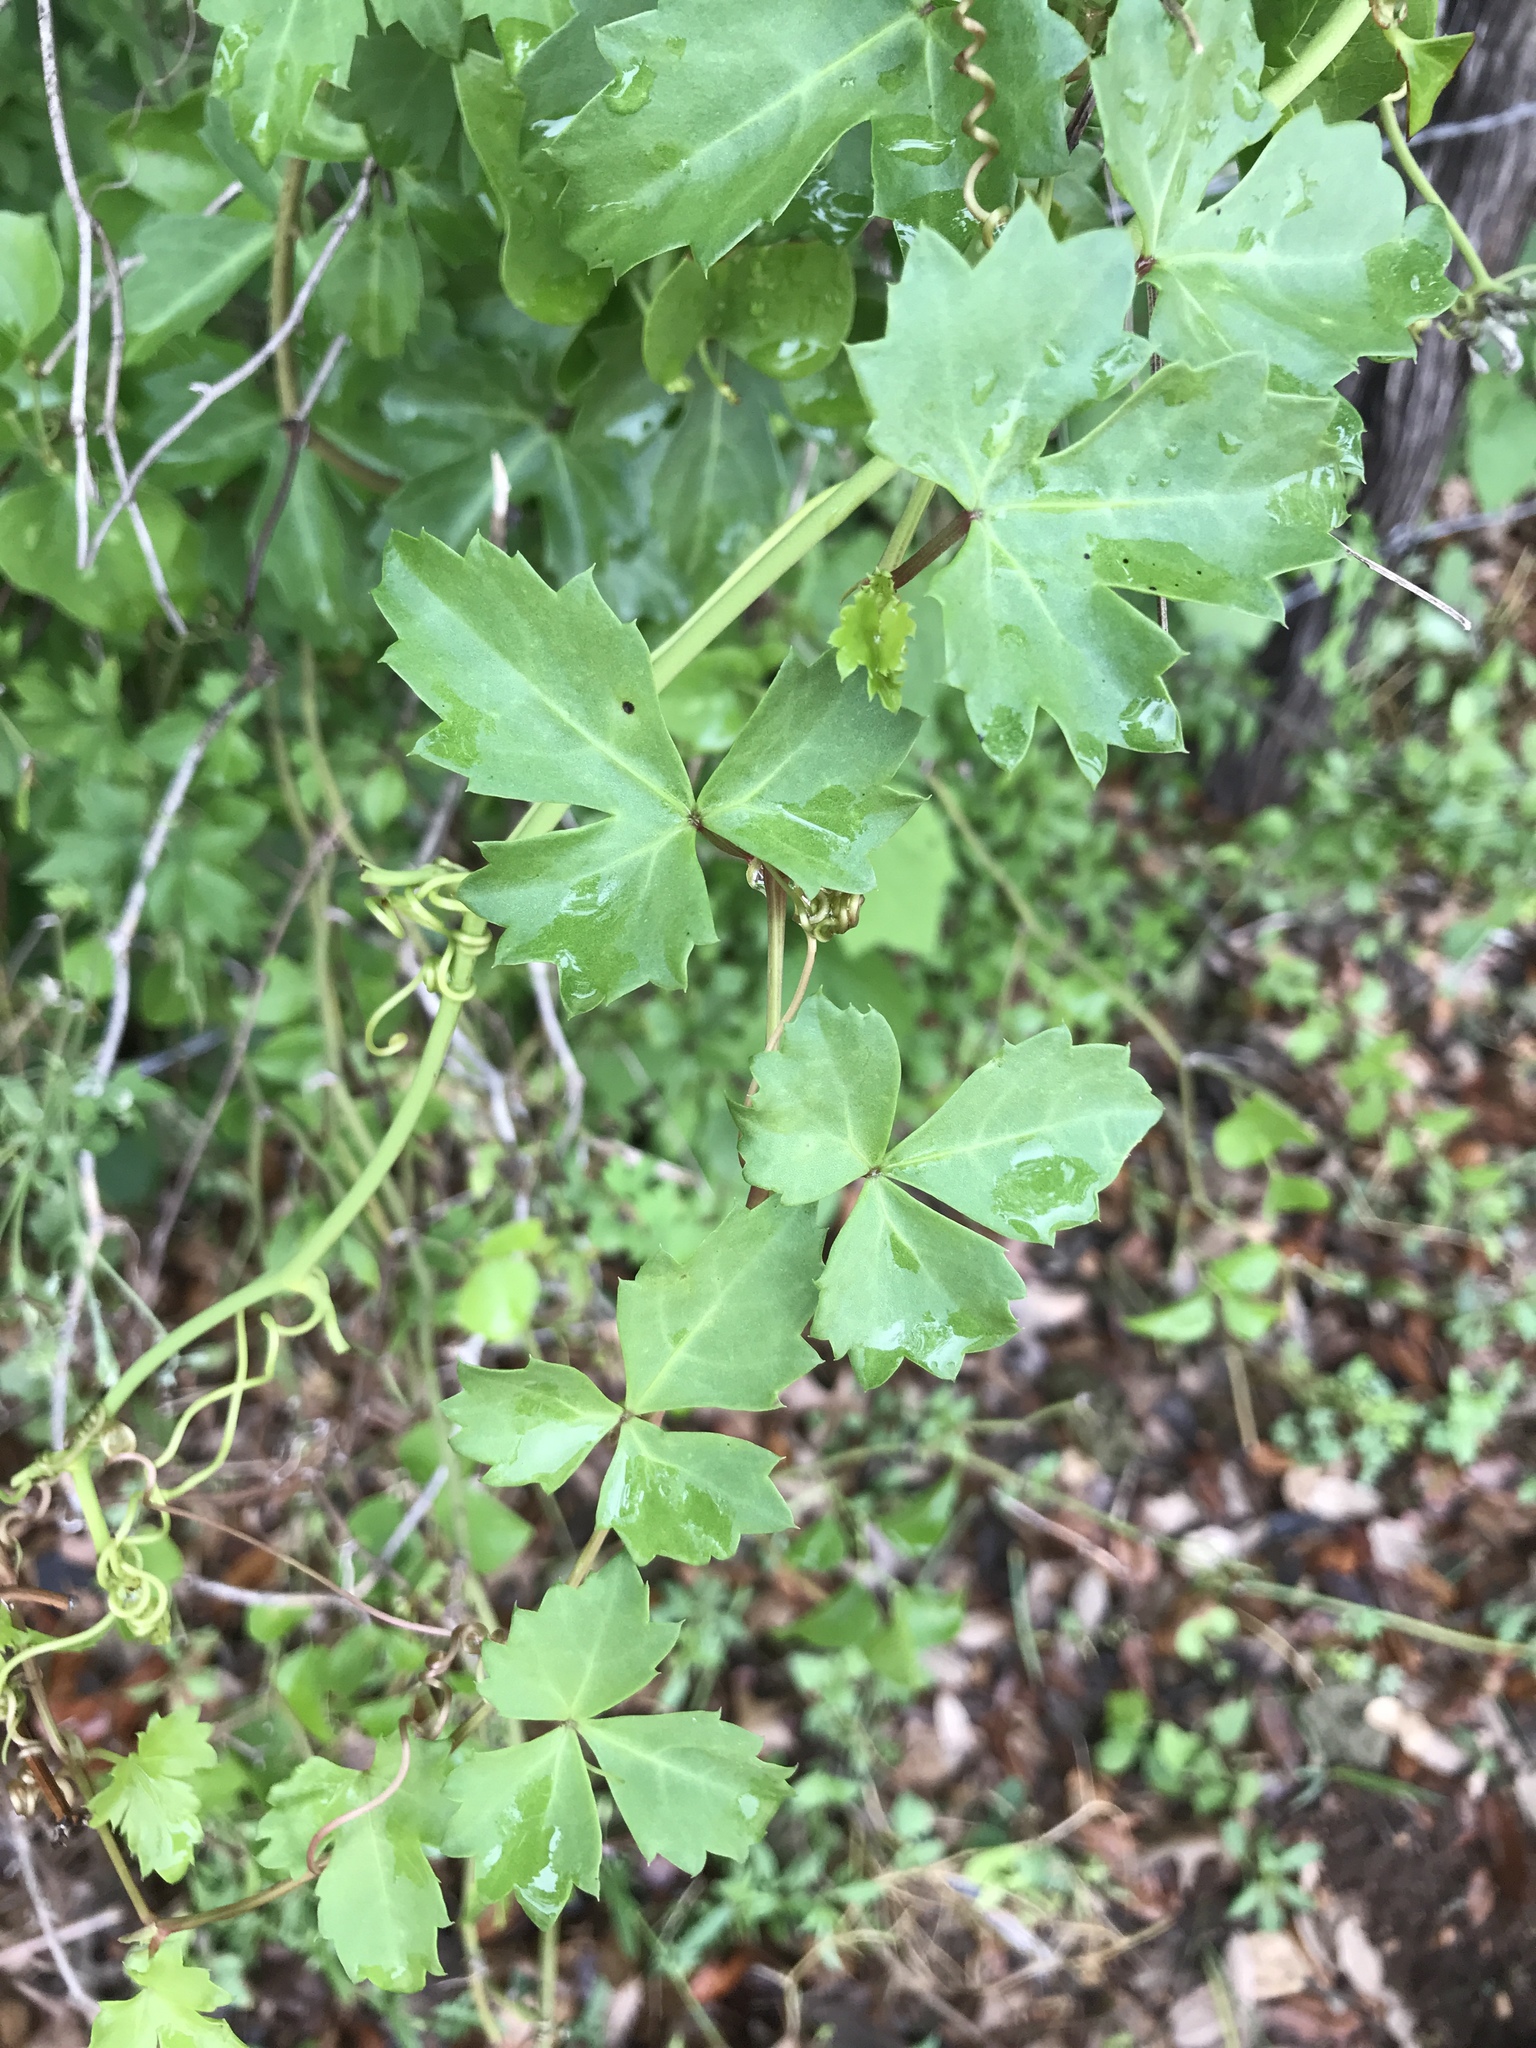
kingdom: Plantae
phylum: Tracheophyta
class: Magnoliopsida
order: Vitales
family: Vitaceae
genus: Cissus
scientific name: Cissus trifoliata
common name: Vine-sorrel
